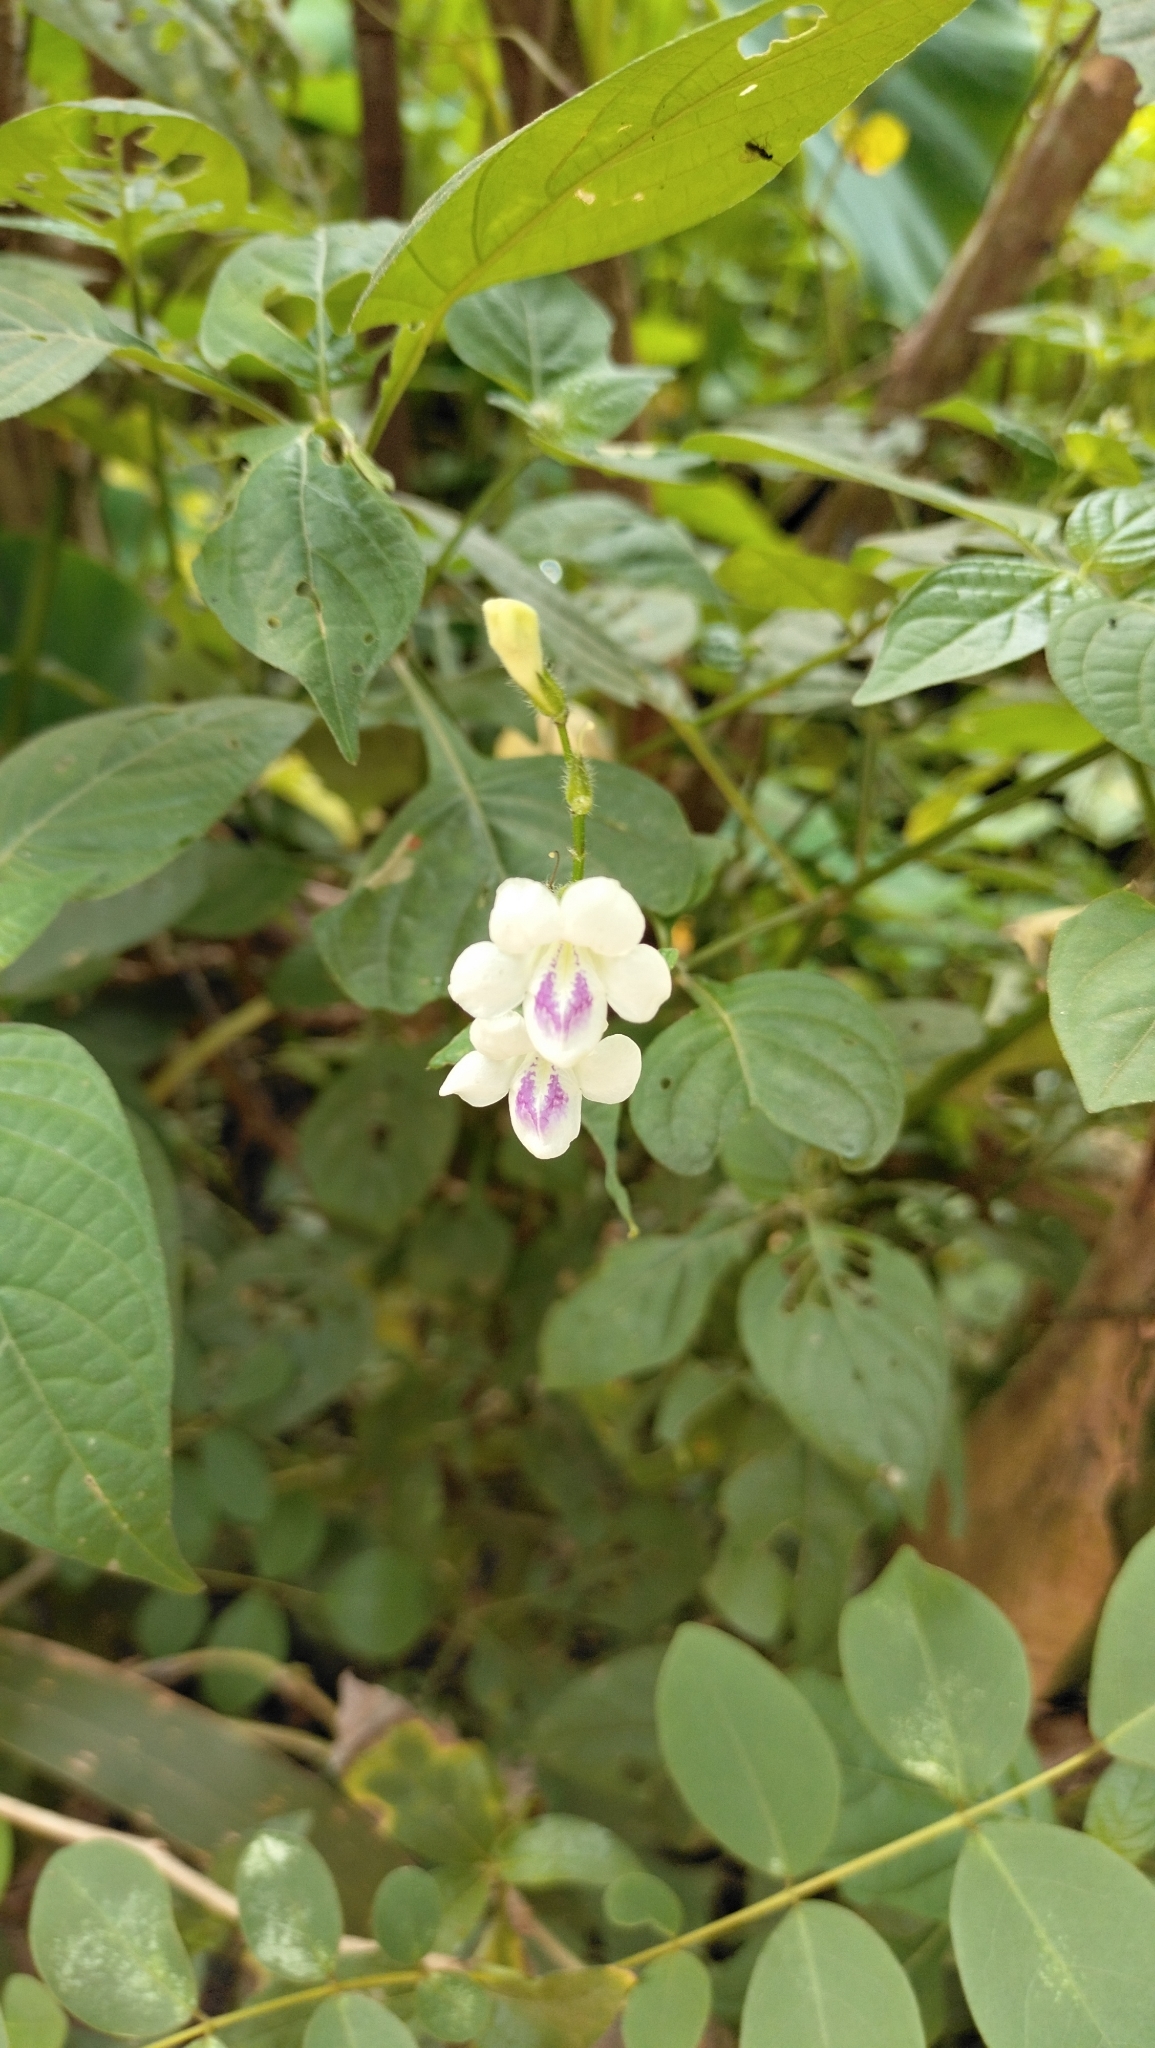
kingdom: Plantae
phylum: Tracheophyta
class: Magnoliopsida
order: Lamiales
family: Acanthaceae
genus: Asystasia
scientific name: Asystasia intrusa
